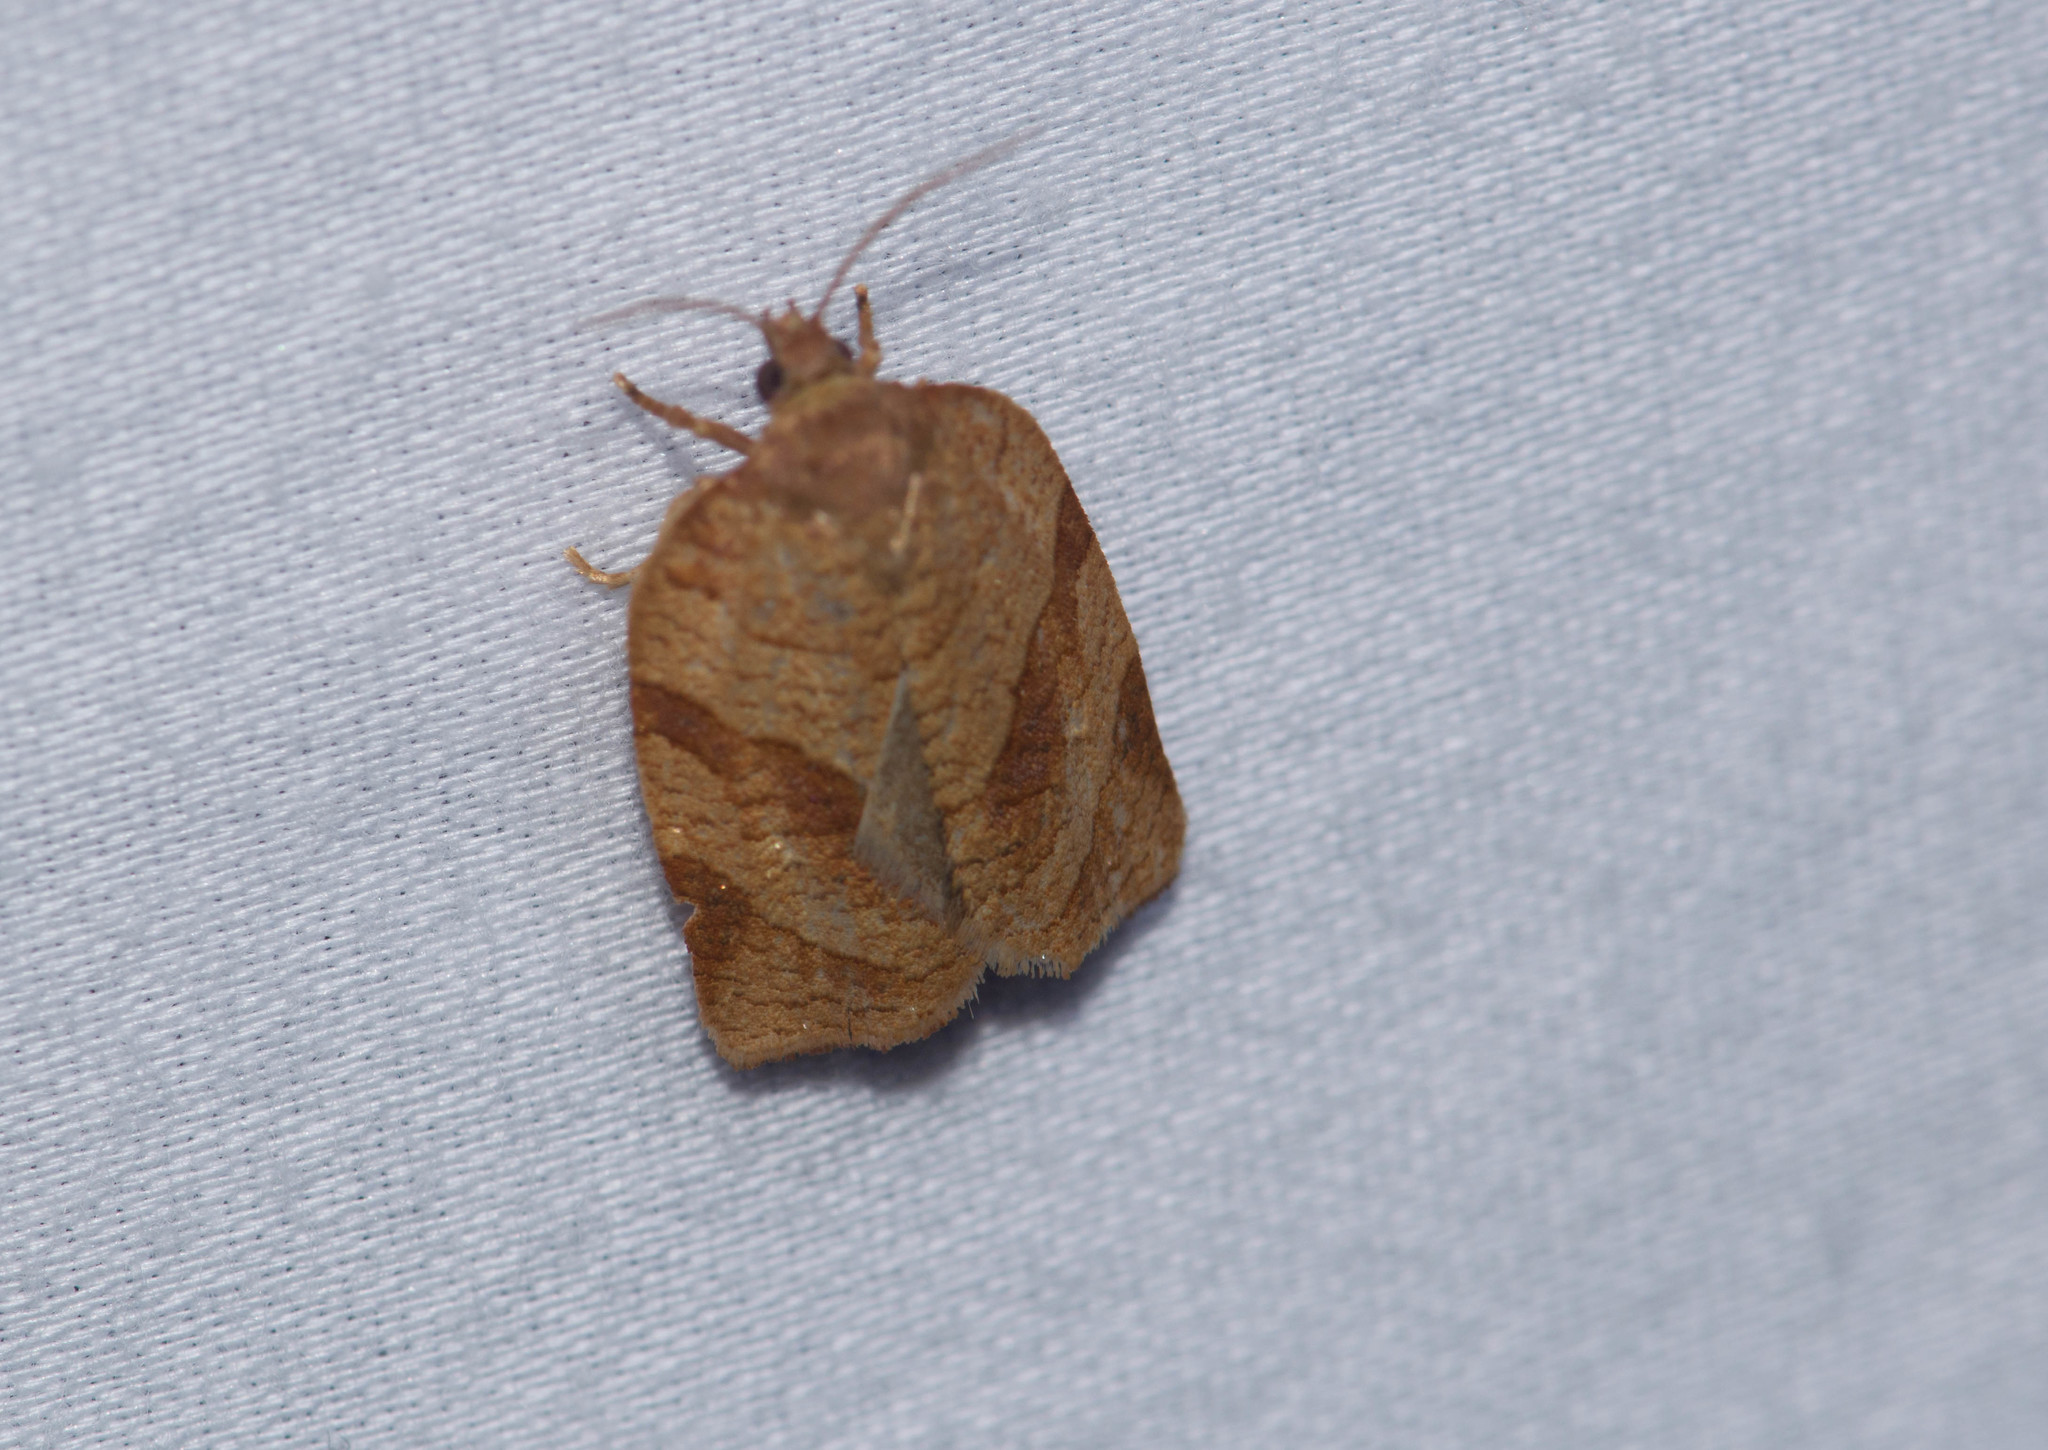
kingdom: Animalia
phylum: Arthropoda
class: Insecta
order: Lepidoptera
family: Tortricidae
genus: Choristoneura
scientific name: Choristoneura parallela
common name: Parallel-banded leafroller moth
